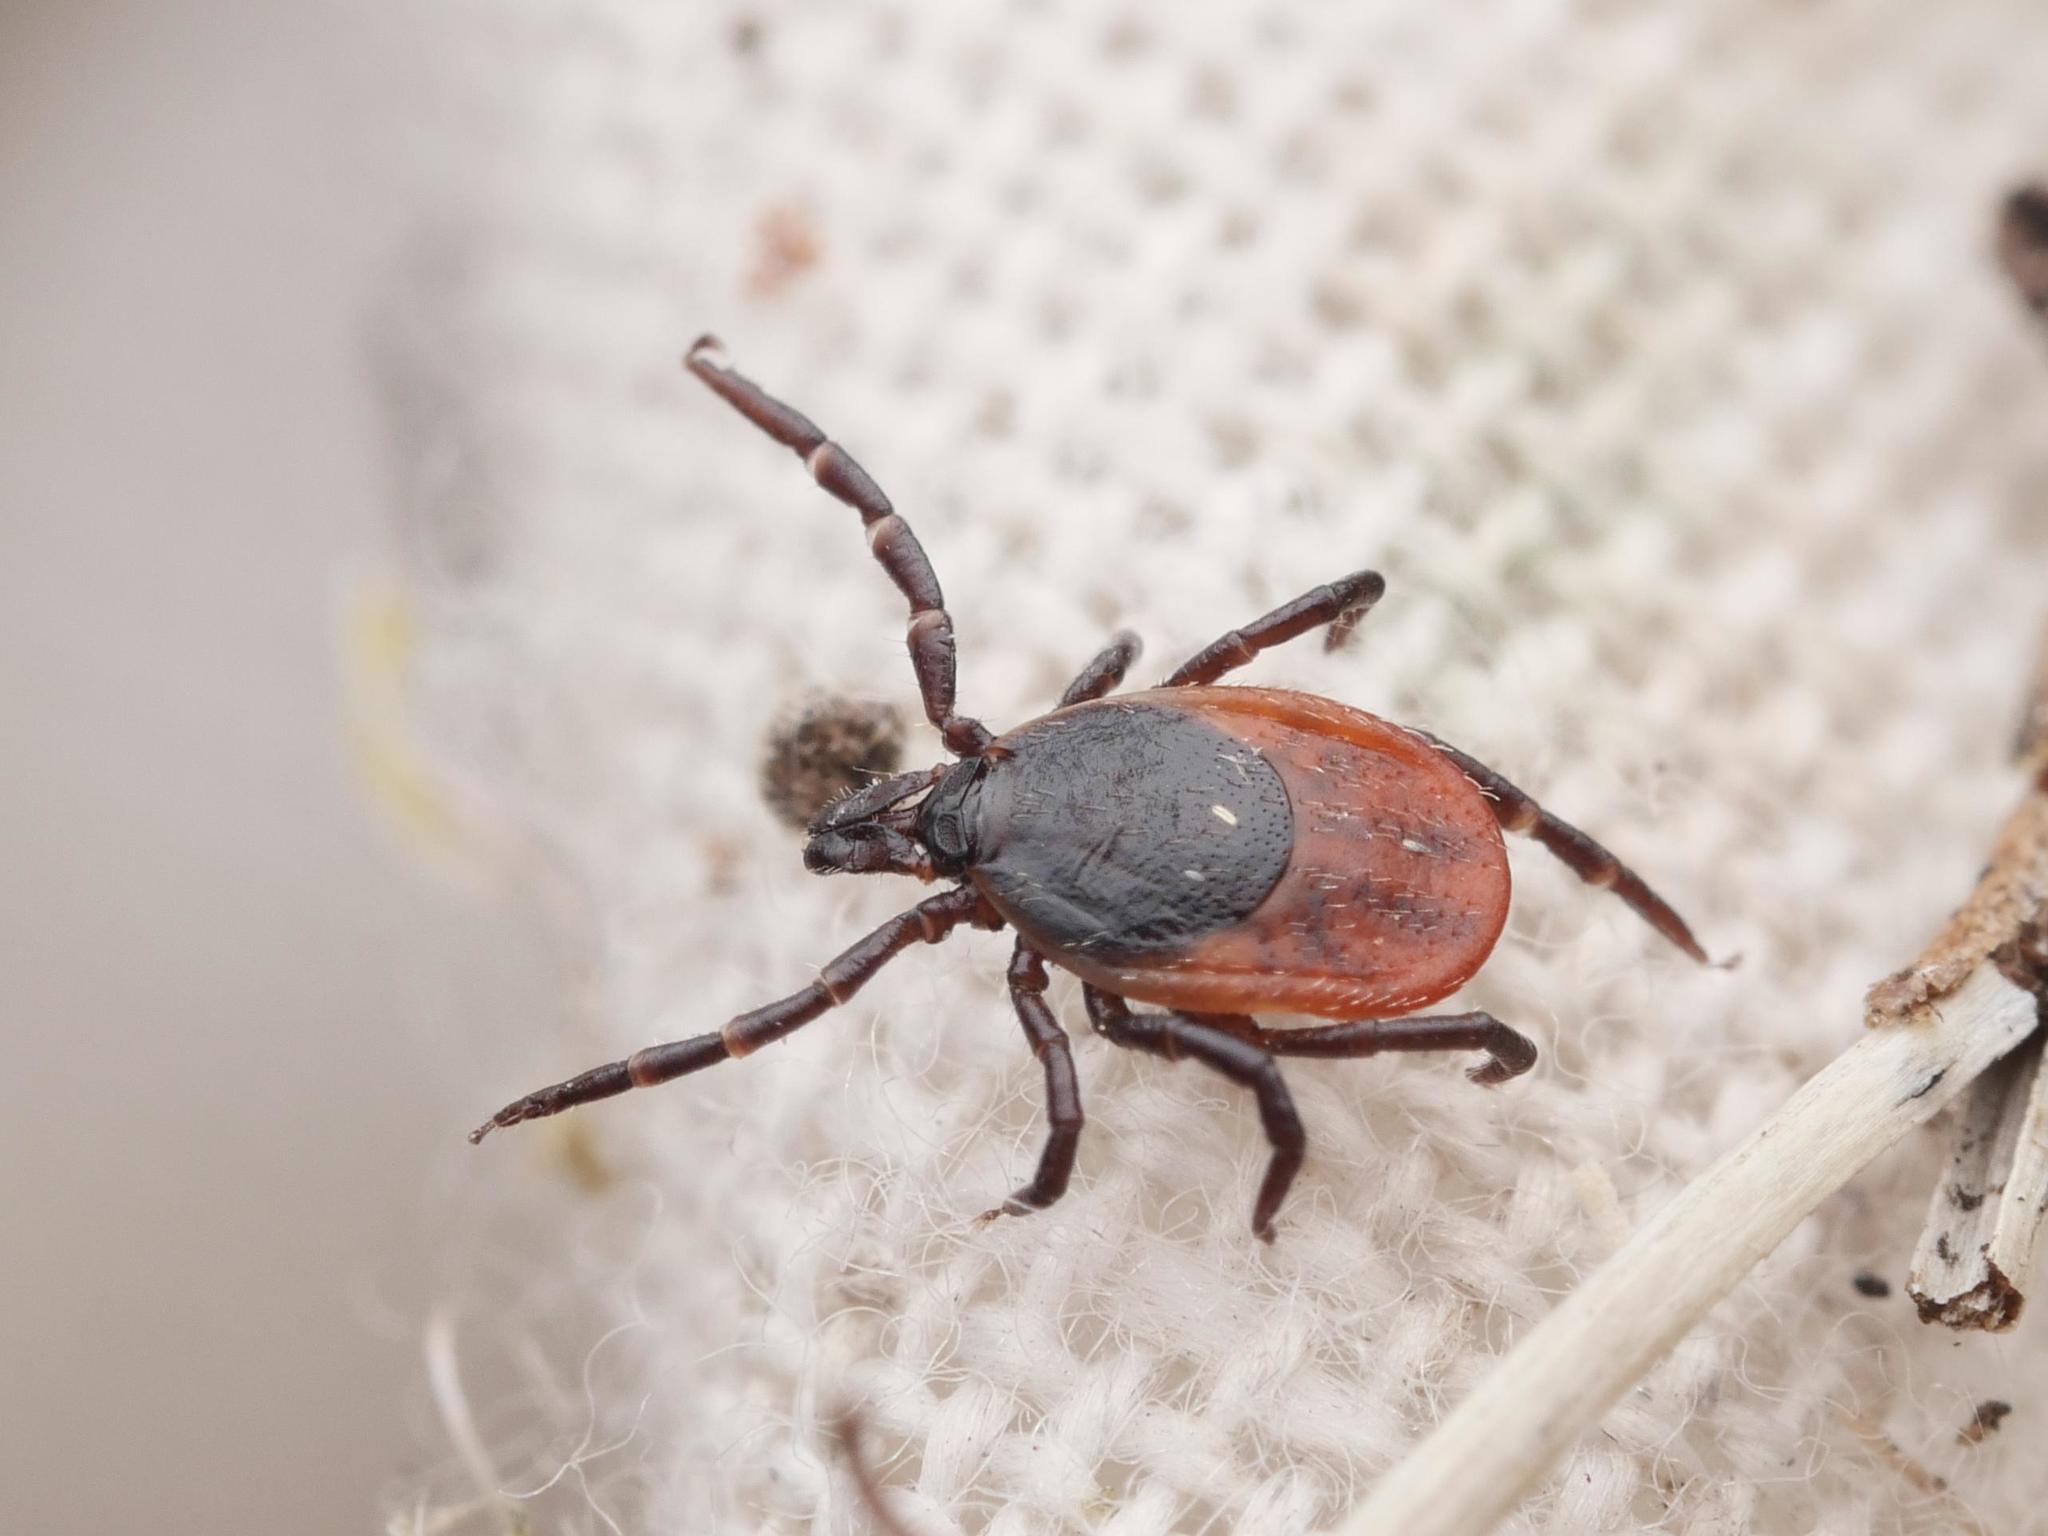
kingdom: Animalia
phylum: Arthropoda
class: Arachnida
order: Ixodida
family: Ixodidae
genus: Ixodes
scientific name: Ixodes ricinus
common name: Castor bean tick
